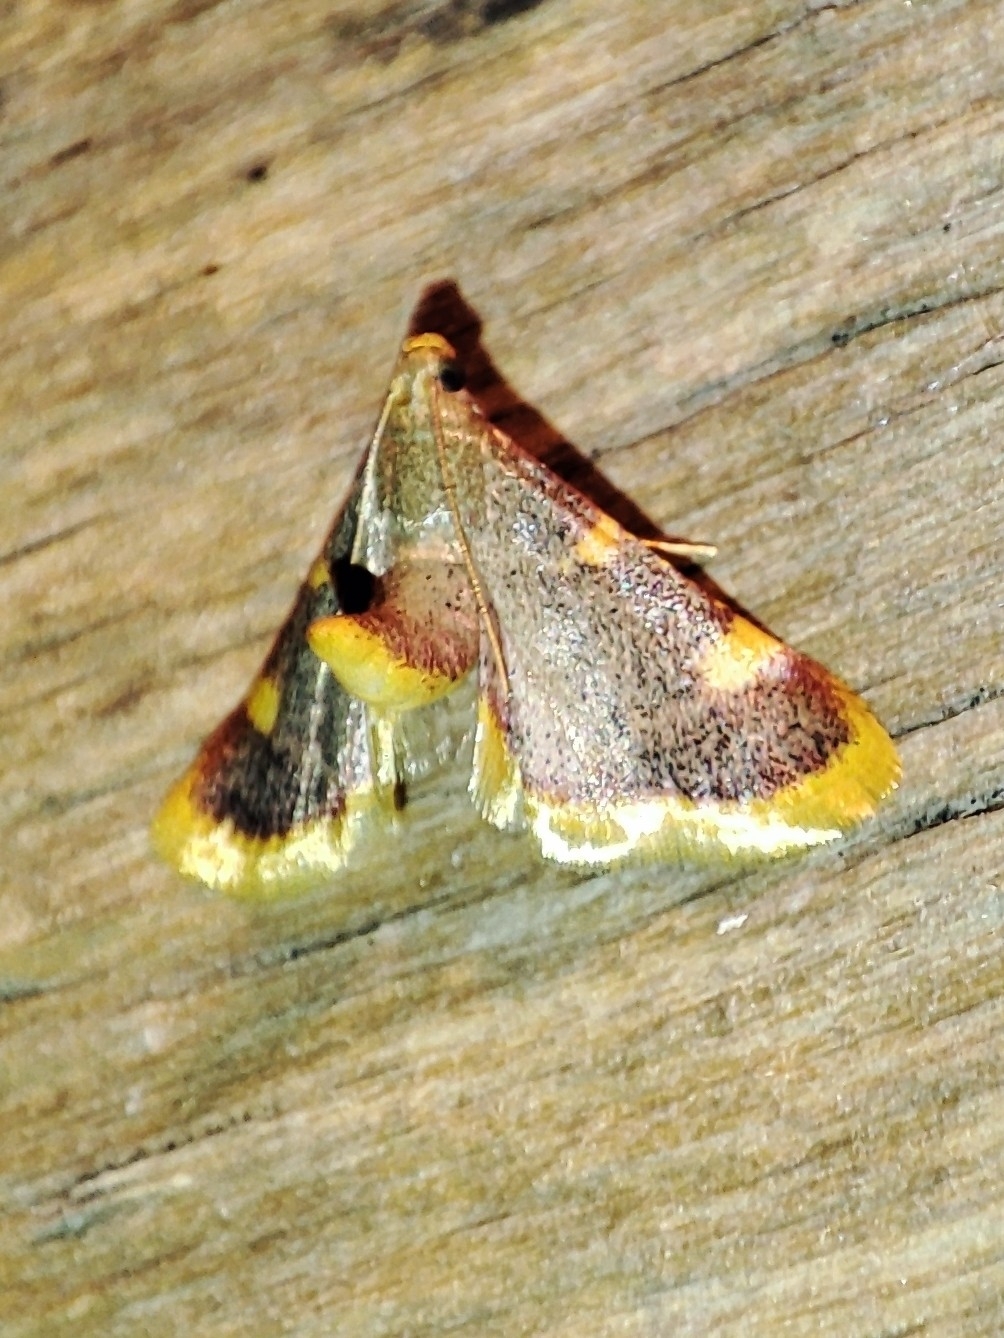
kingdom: Animalia
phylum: Arthropoda
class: Insecta
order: Lepidoptera
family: Pyralidae
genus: Hypsopygia
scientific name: Hypsopygia costalis
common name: Gold triangle
